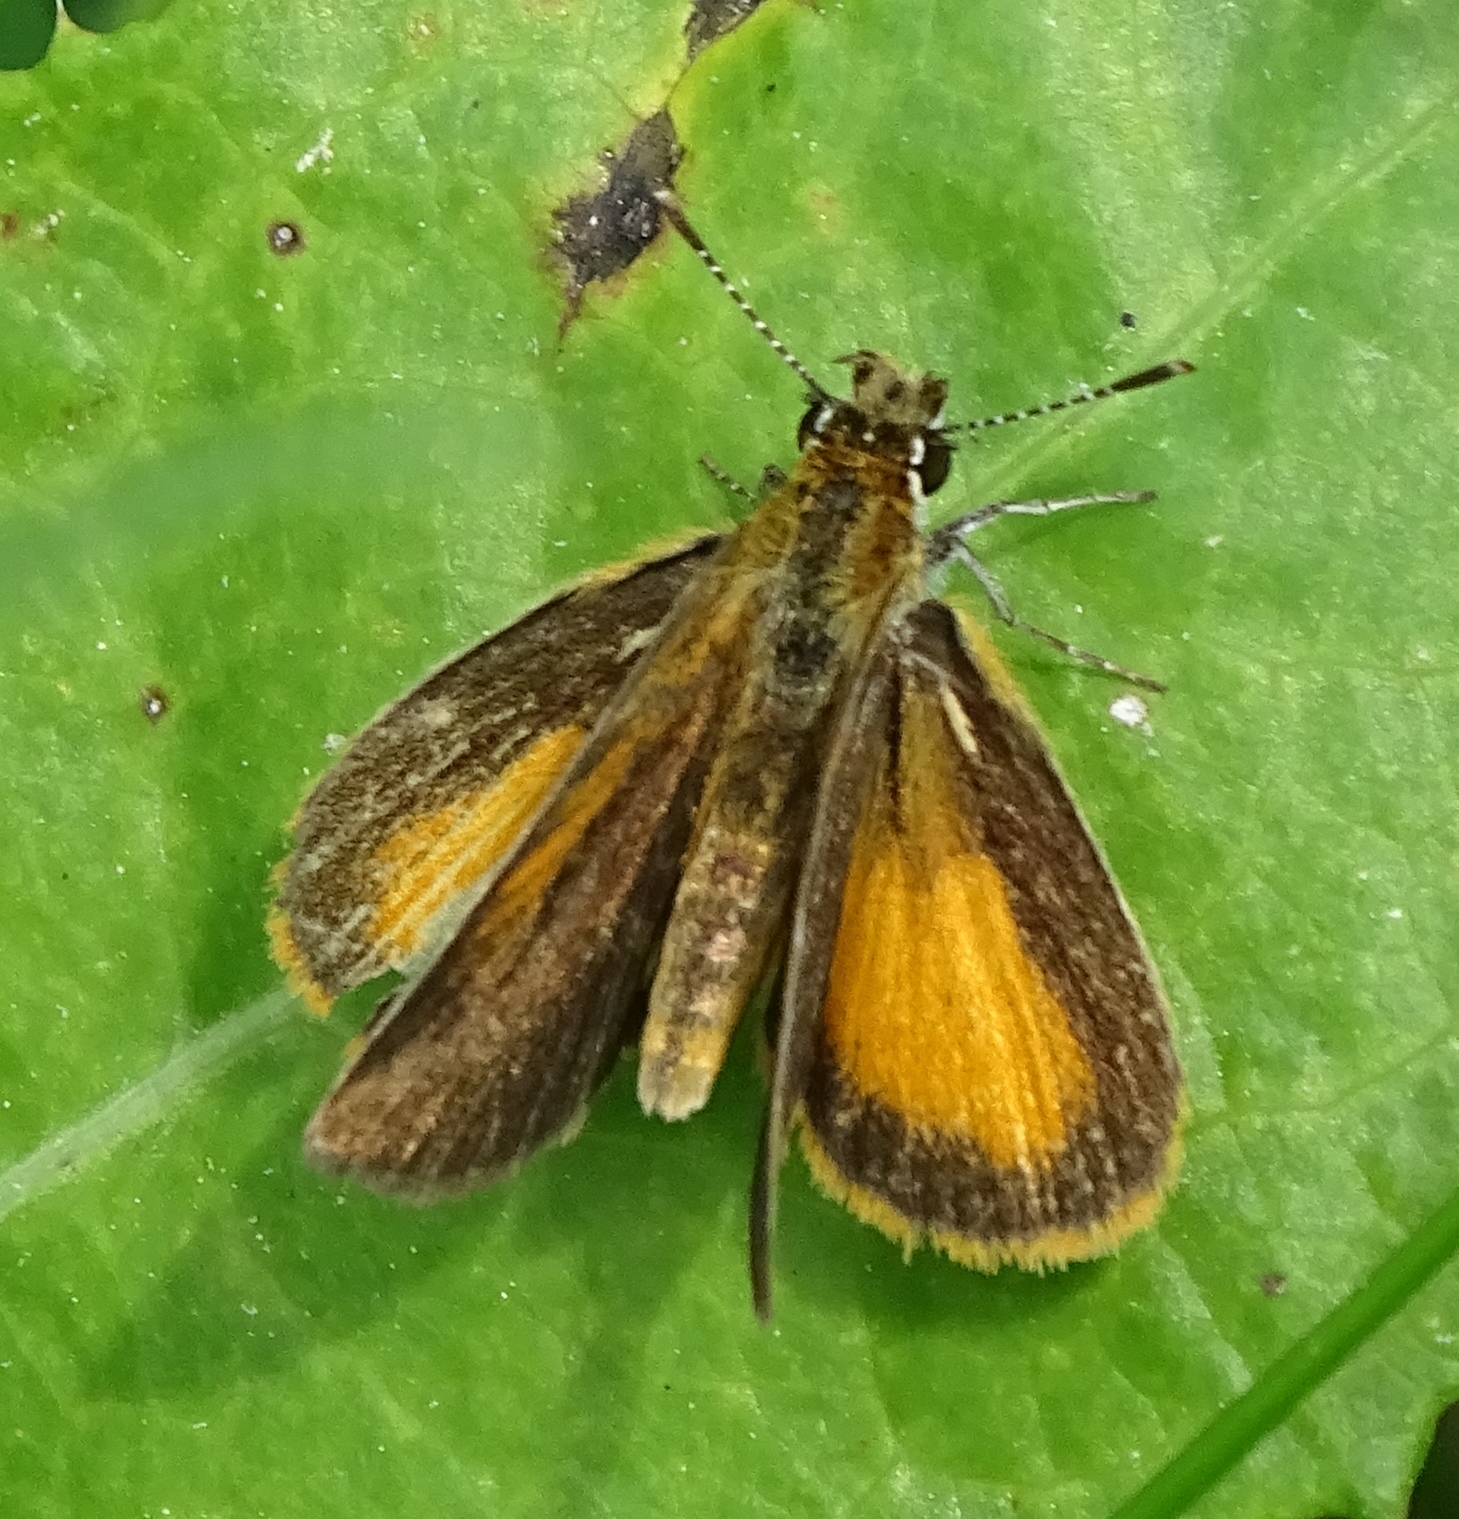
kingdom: Animalia
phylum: Arthropoda
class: Insecta
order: Lepidoptera
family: Hesperiidae
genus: Ancyloxypha
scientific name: Ancyloxypha numitor
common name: Least skipper
